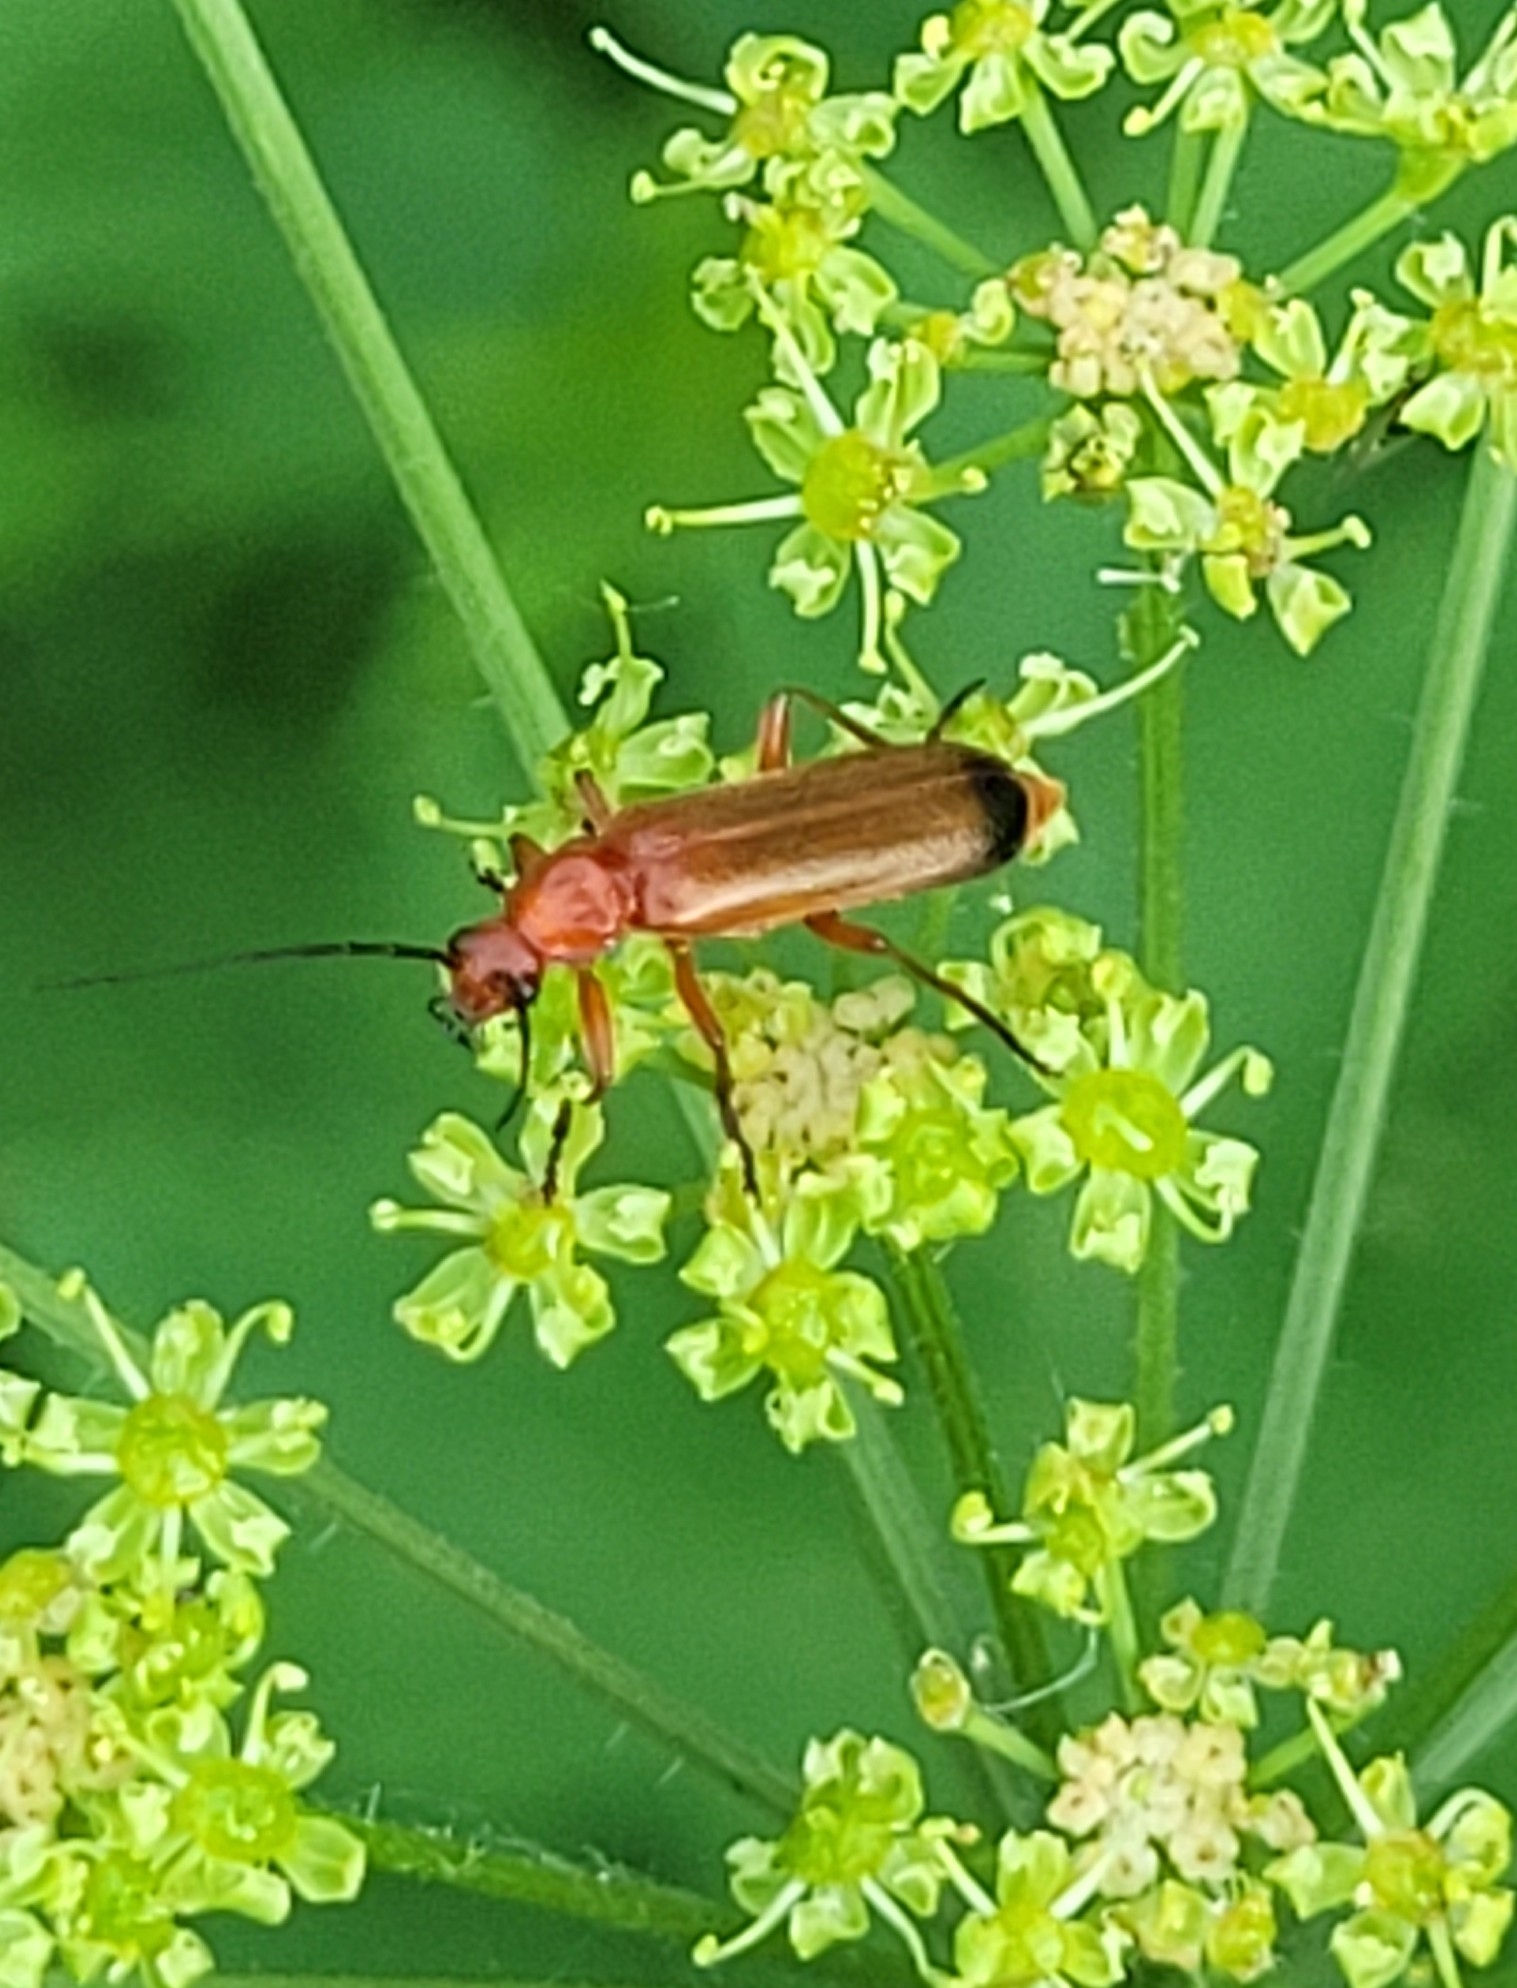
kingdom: Animalia
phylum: Arthropoda
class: Insecta
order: Coleoptera
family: Cantharidae
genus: Rhagonycha
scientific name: Rhagonycha fulva
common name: Common red soldier beetle
